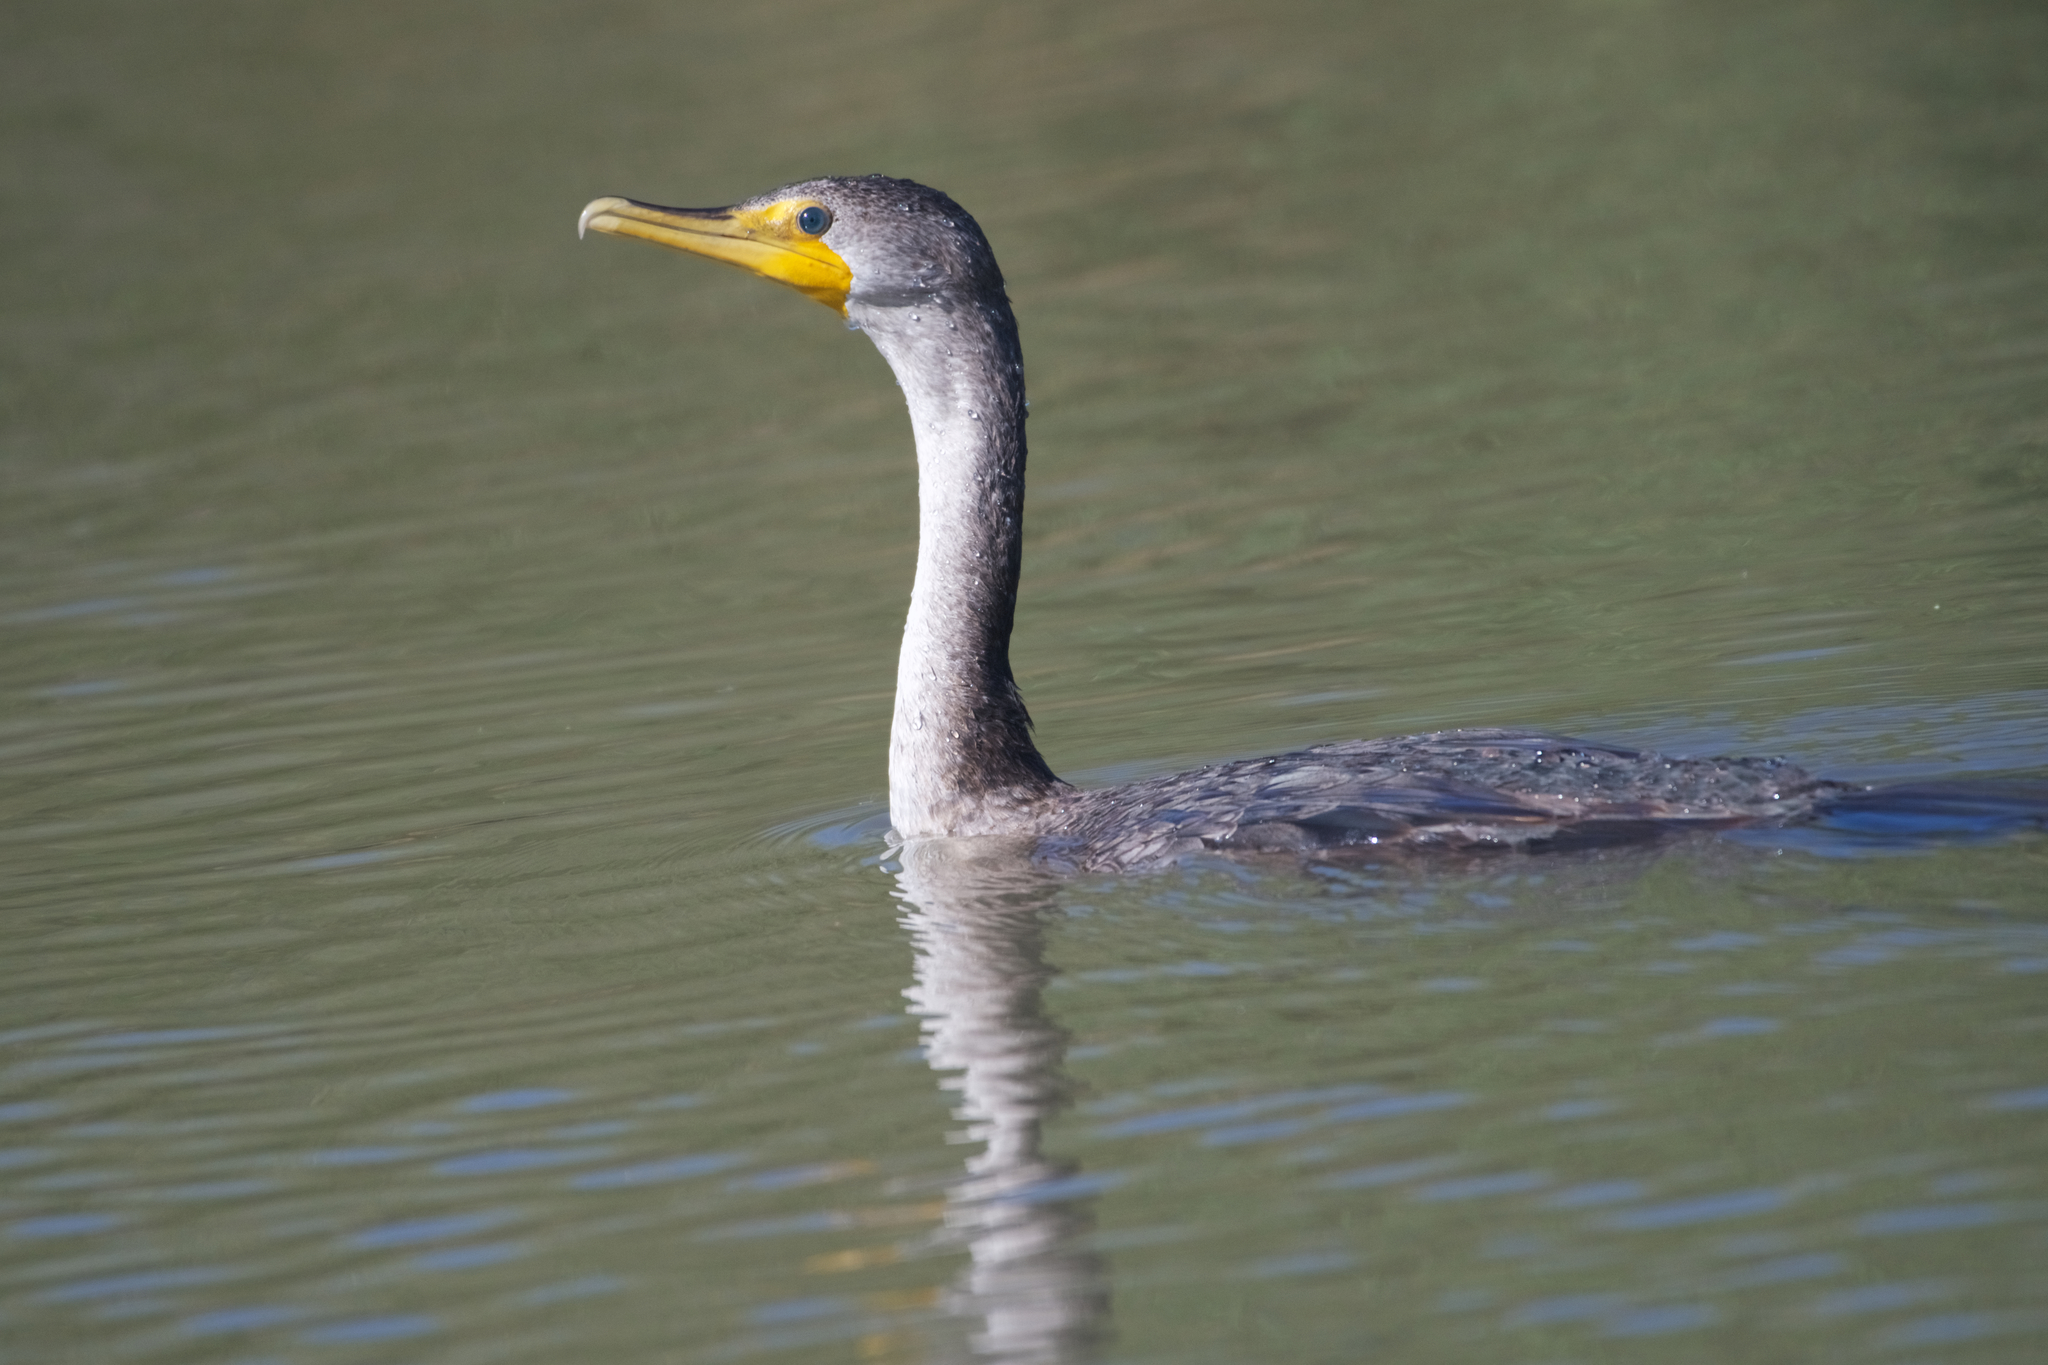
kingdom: Animalia
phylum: Chordata
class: Aves
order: Suliformes
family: Phalacrocoracidae
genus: Phalacrocorax
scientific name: Phalacrocorax auritus
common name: Double-crested cormorant
